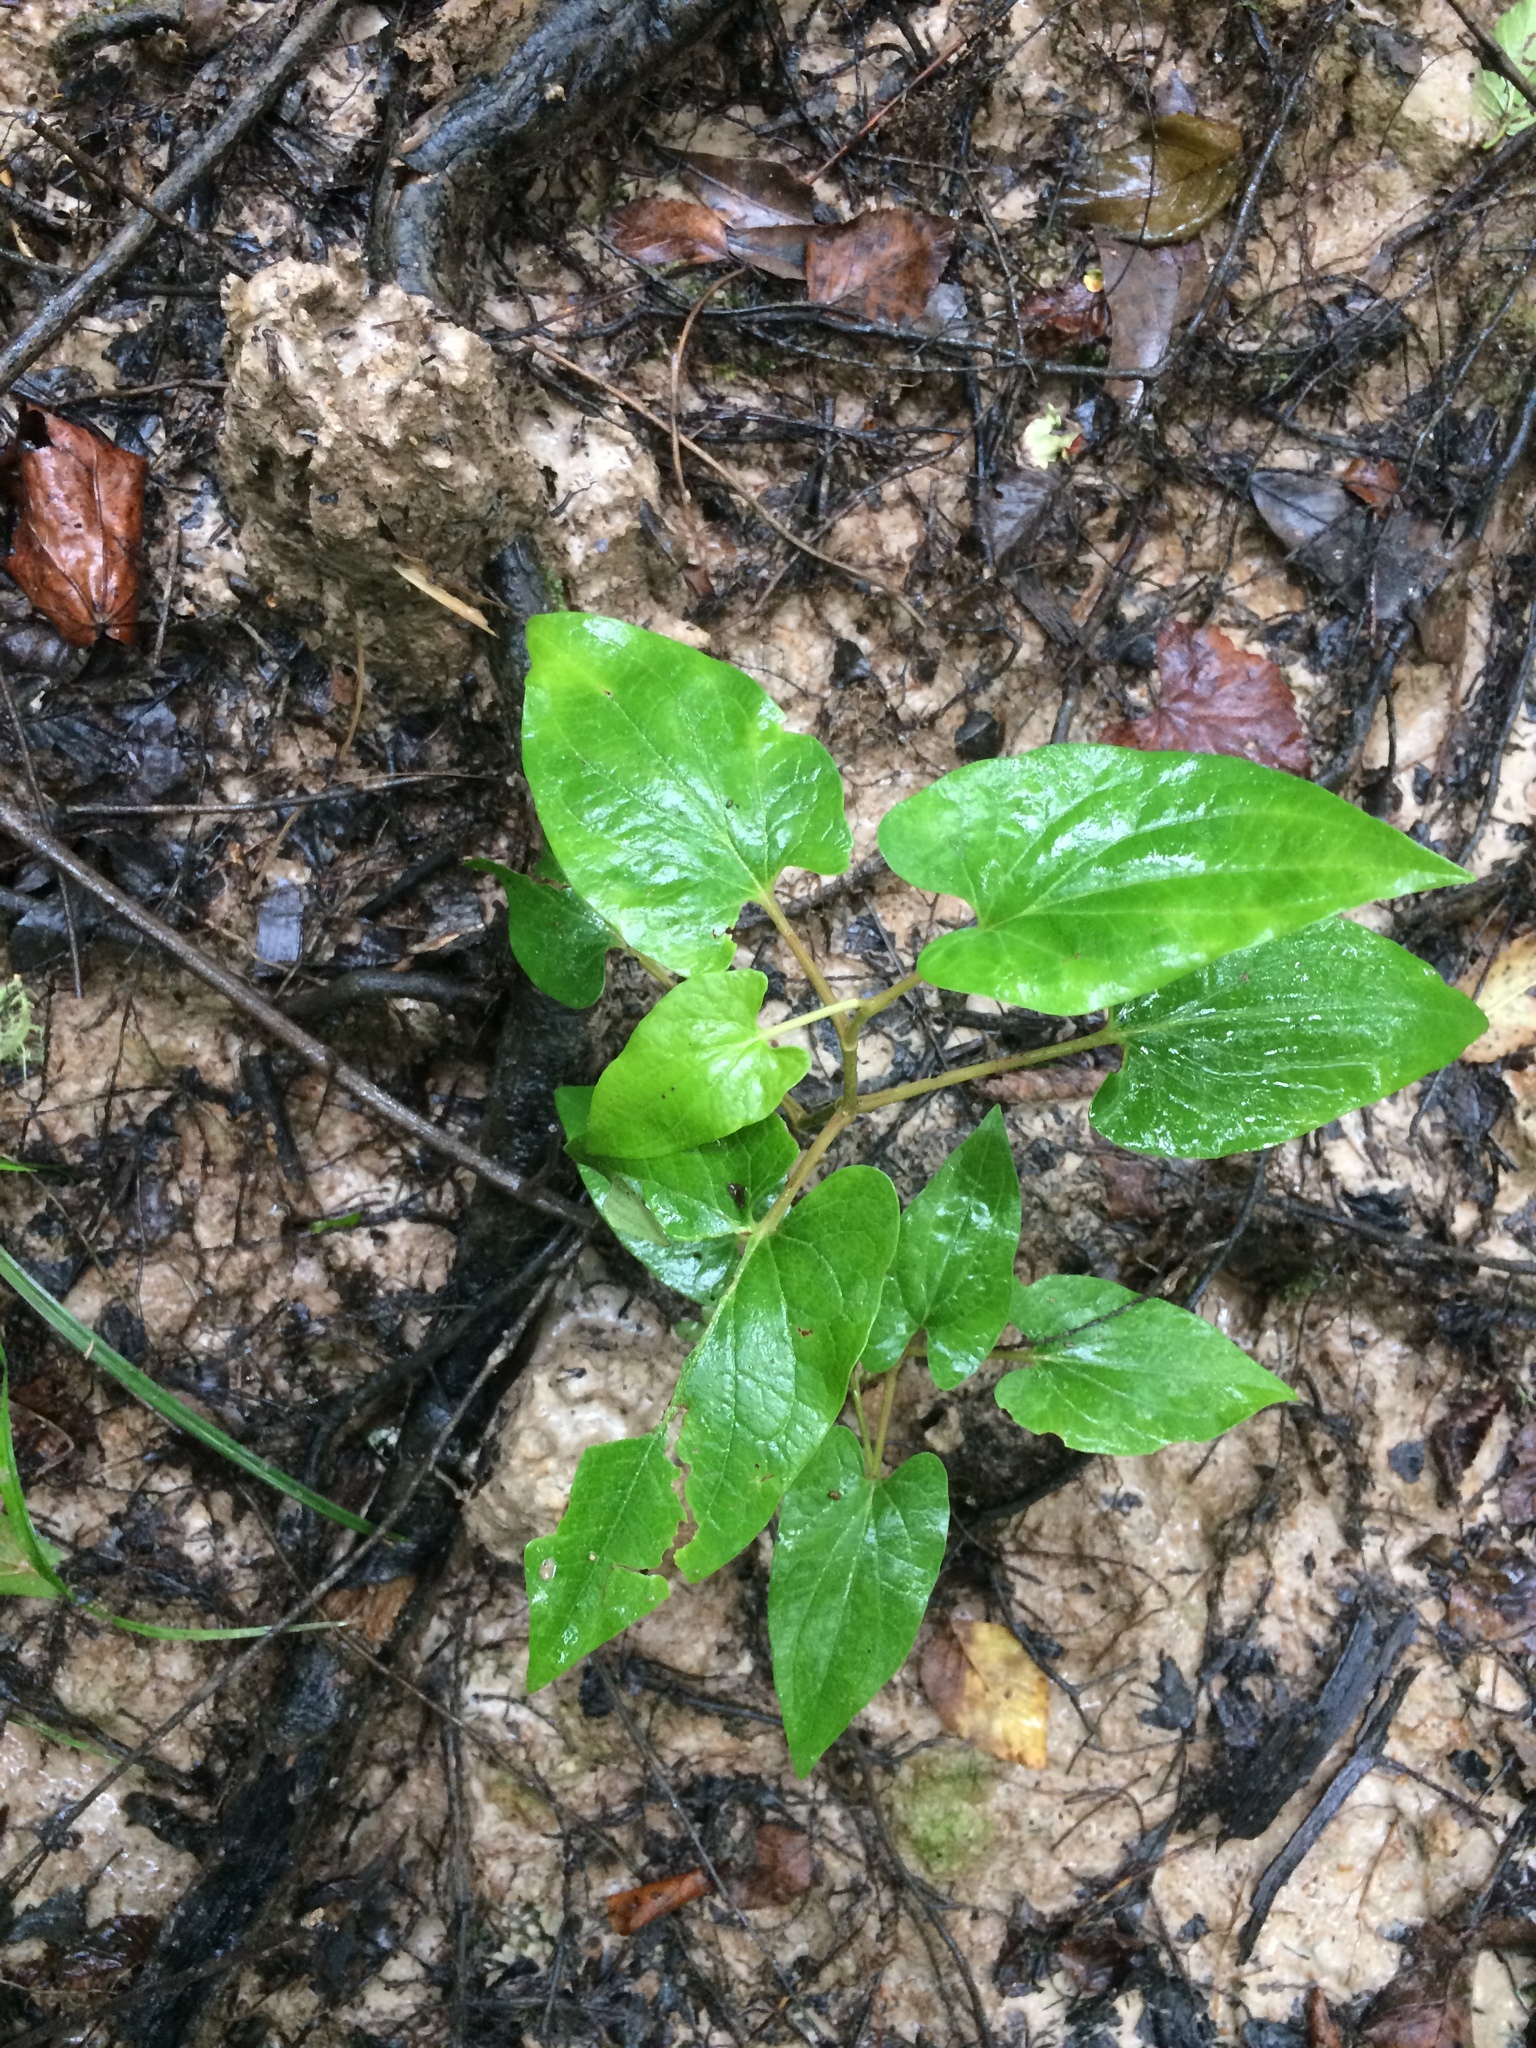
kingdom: Plantae
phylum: Tracheophyta
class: Magnoliopsida
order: Piperales
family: Saururaceae
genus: Saururus
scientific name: Saururus cernuus
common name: Lizard's-tail
